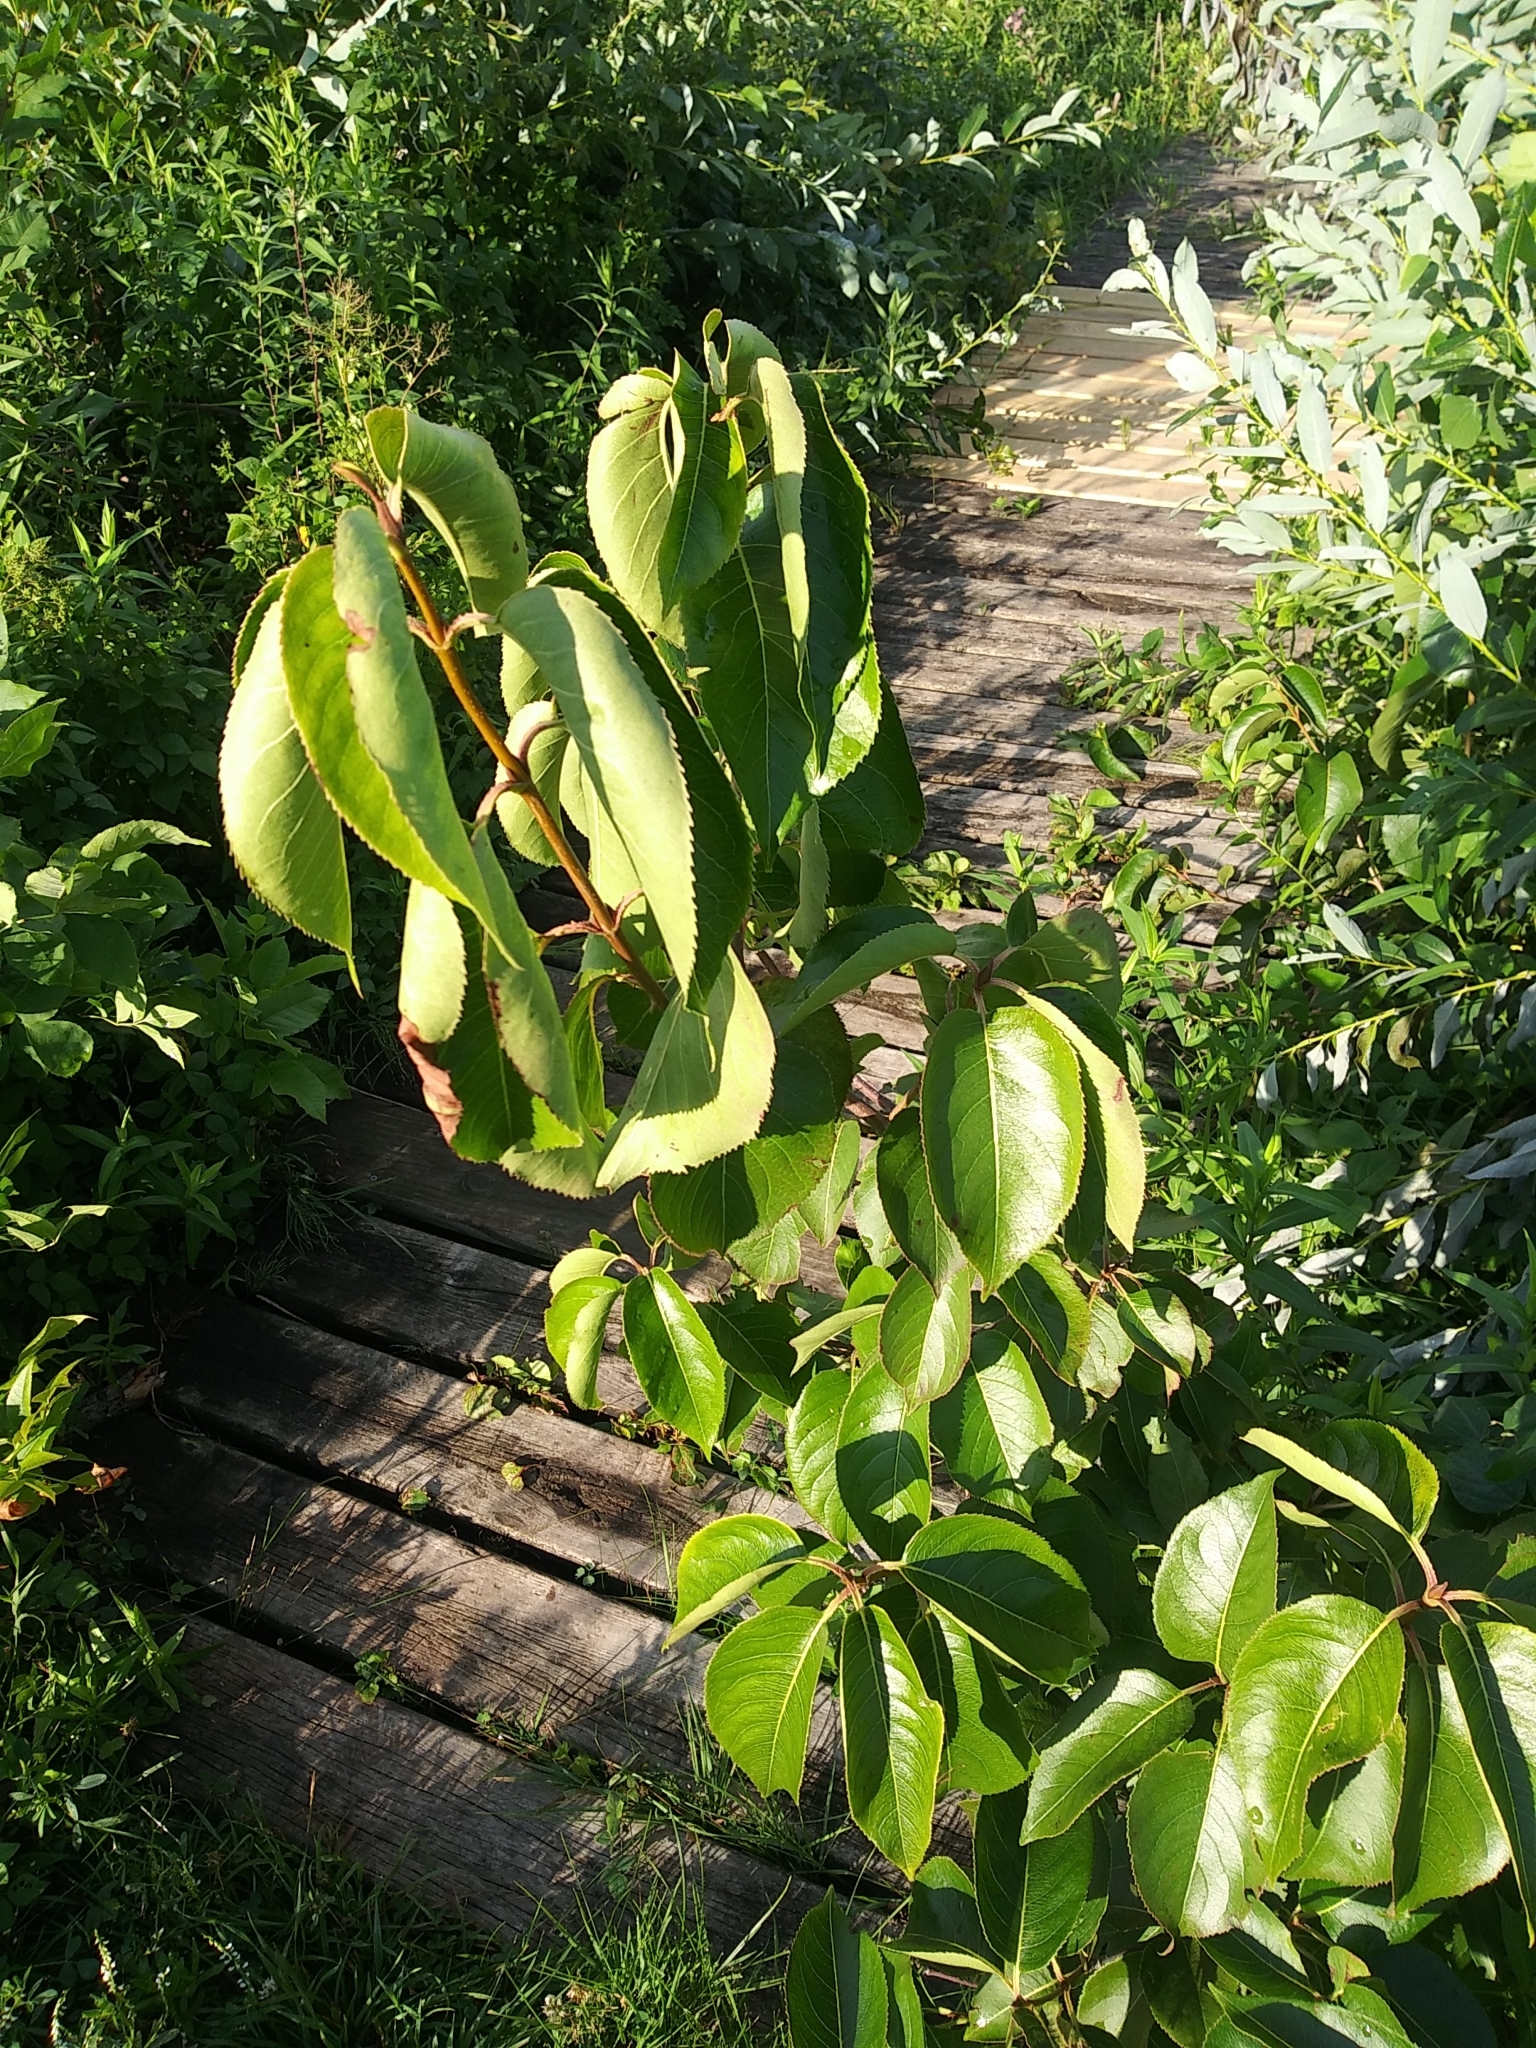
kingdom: Plantae
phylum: Tracheophyta
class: Magnoliopsida
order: Dipsacales
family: Viburnaceae
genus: Viburnum
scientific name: Viburnum lentago
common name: Black haw
